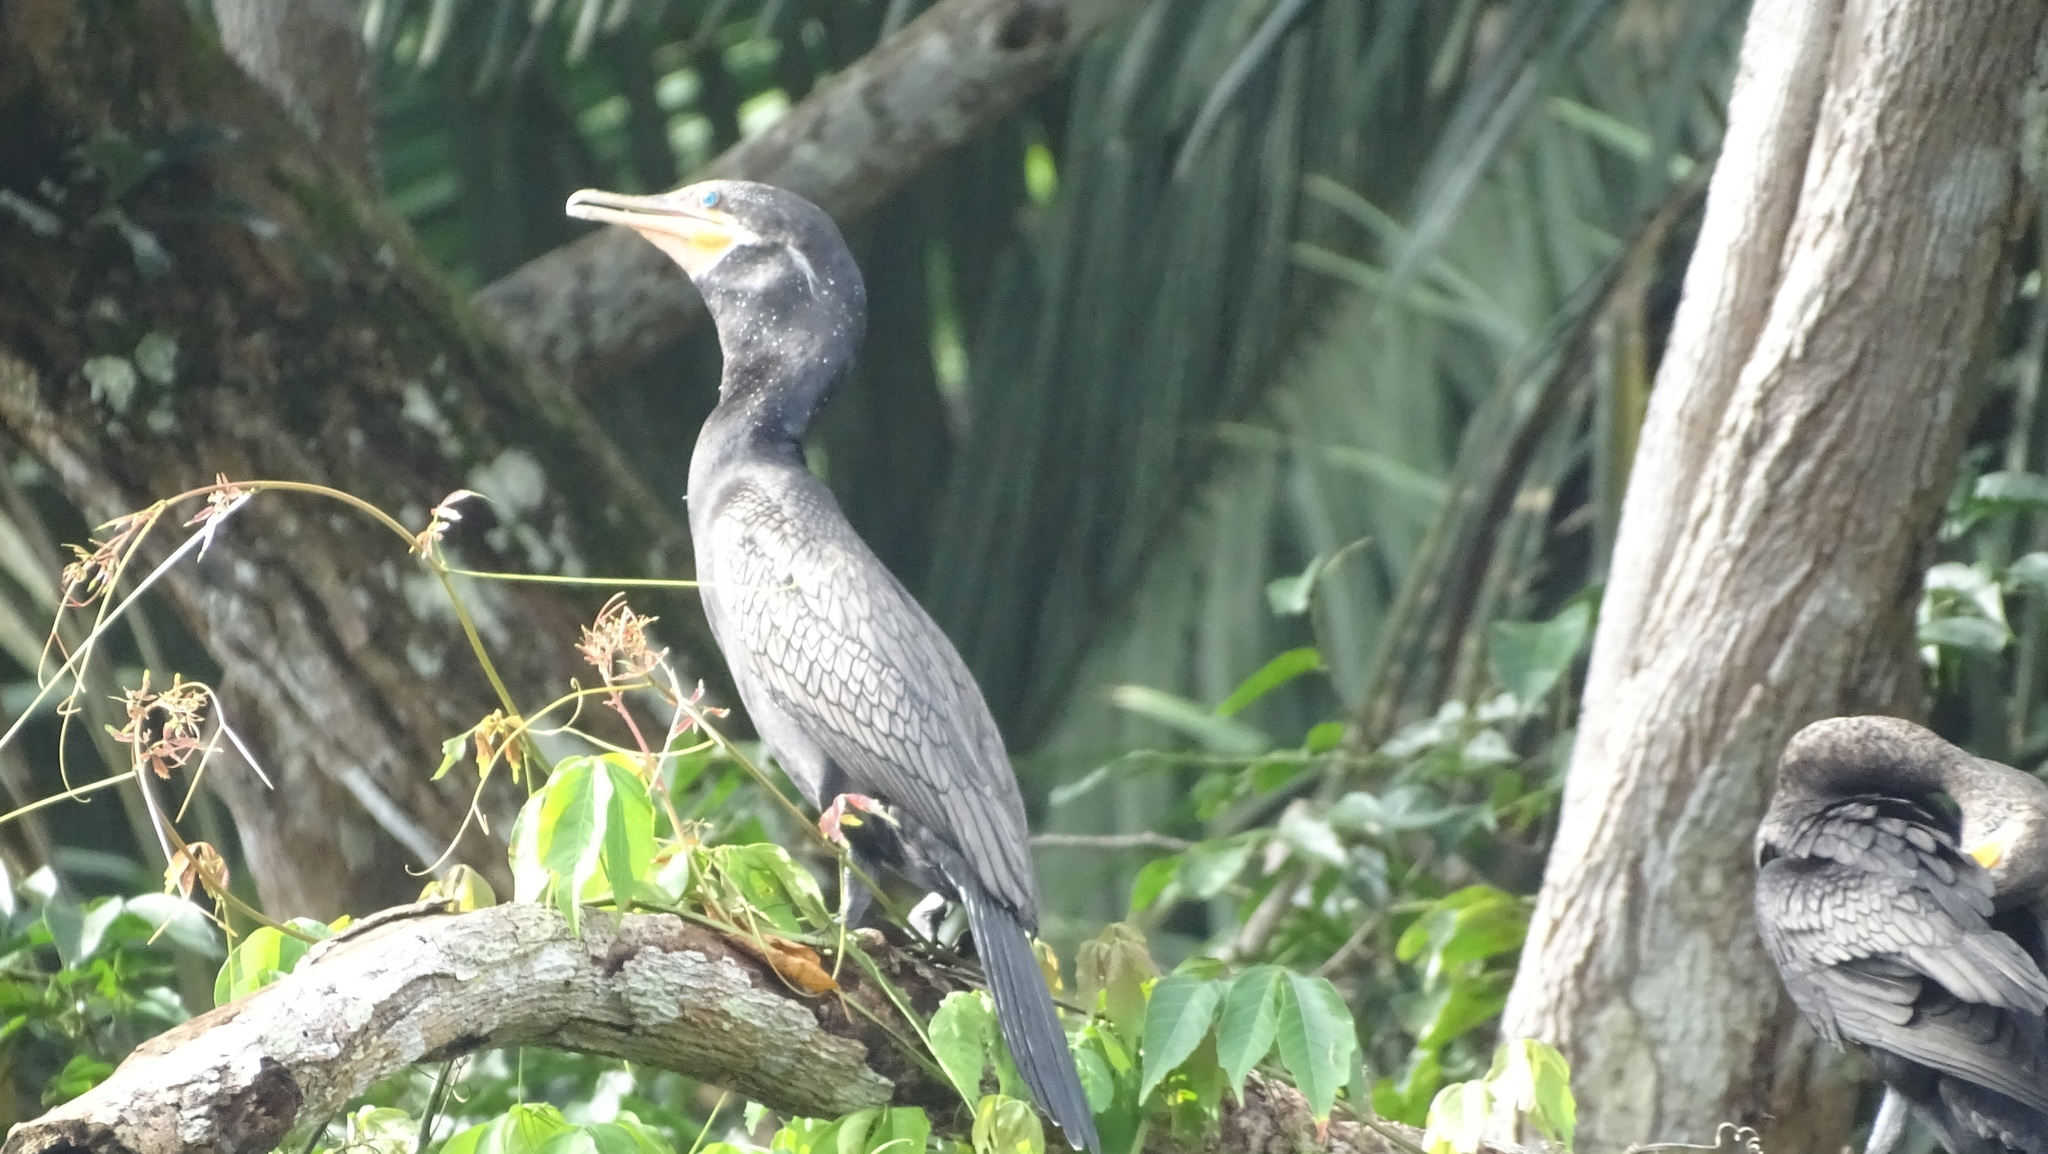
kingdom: Animalia
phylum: Chordata
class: Aves
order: Suliformes
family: Phalacrocoracidae
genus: Phalacrocorax
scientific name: Phalacrocorax brasilianus
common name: Neotropic cormorant
